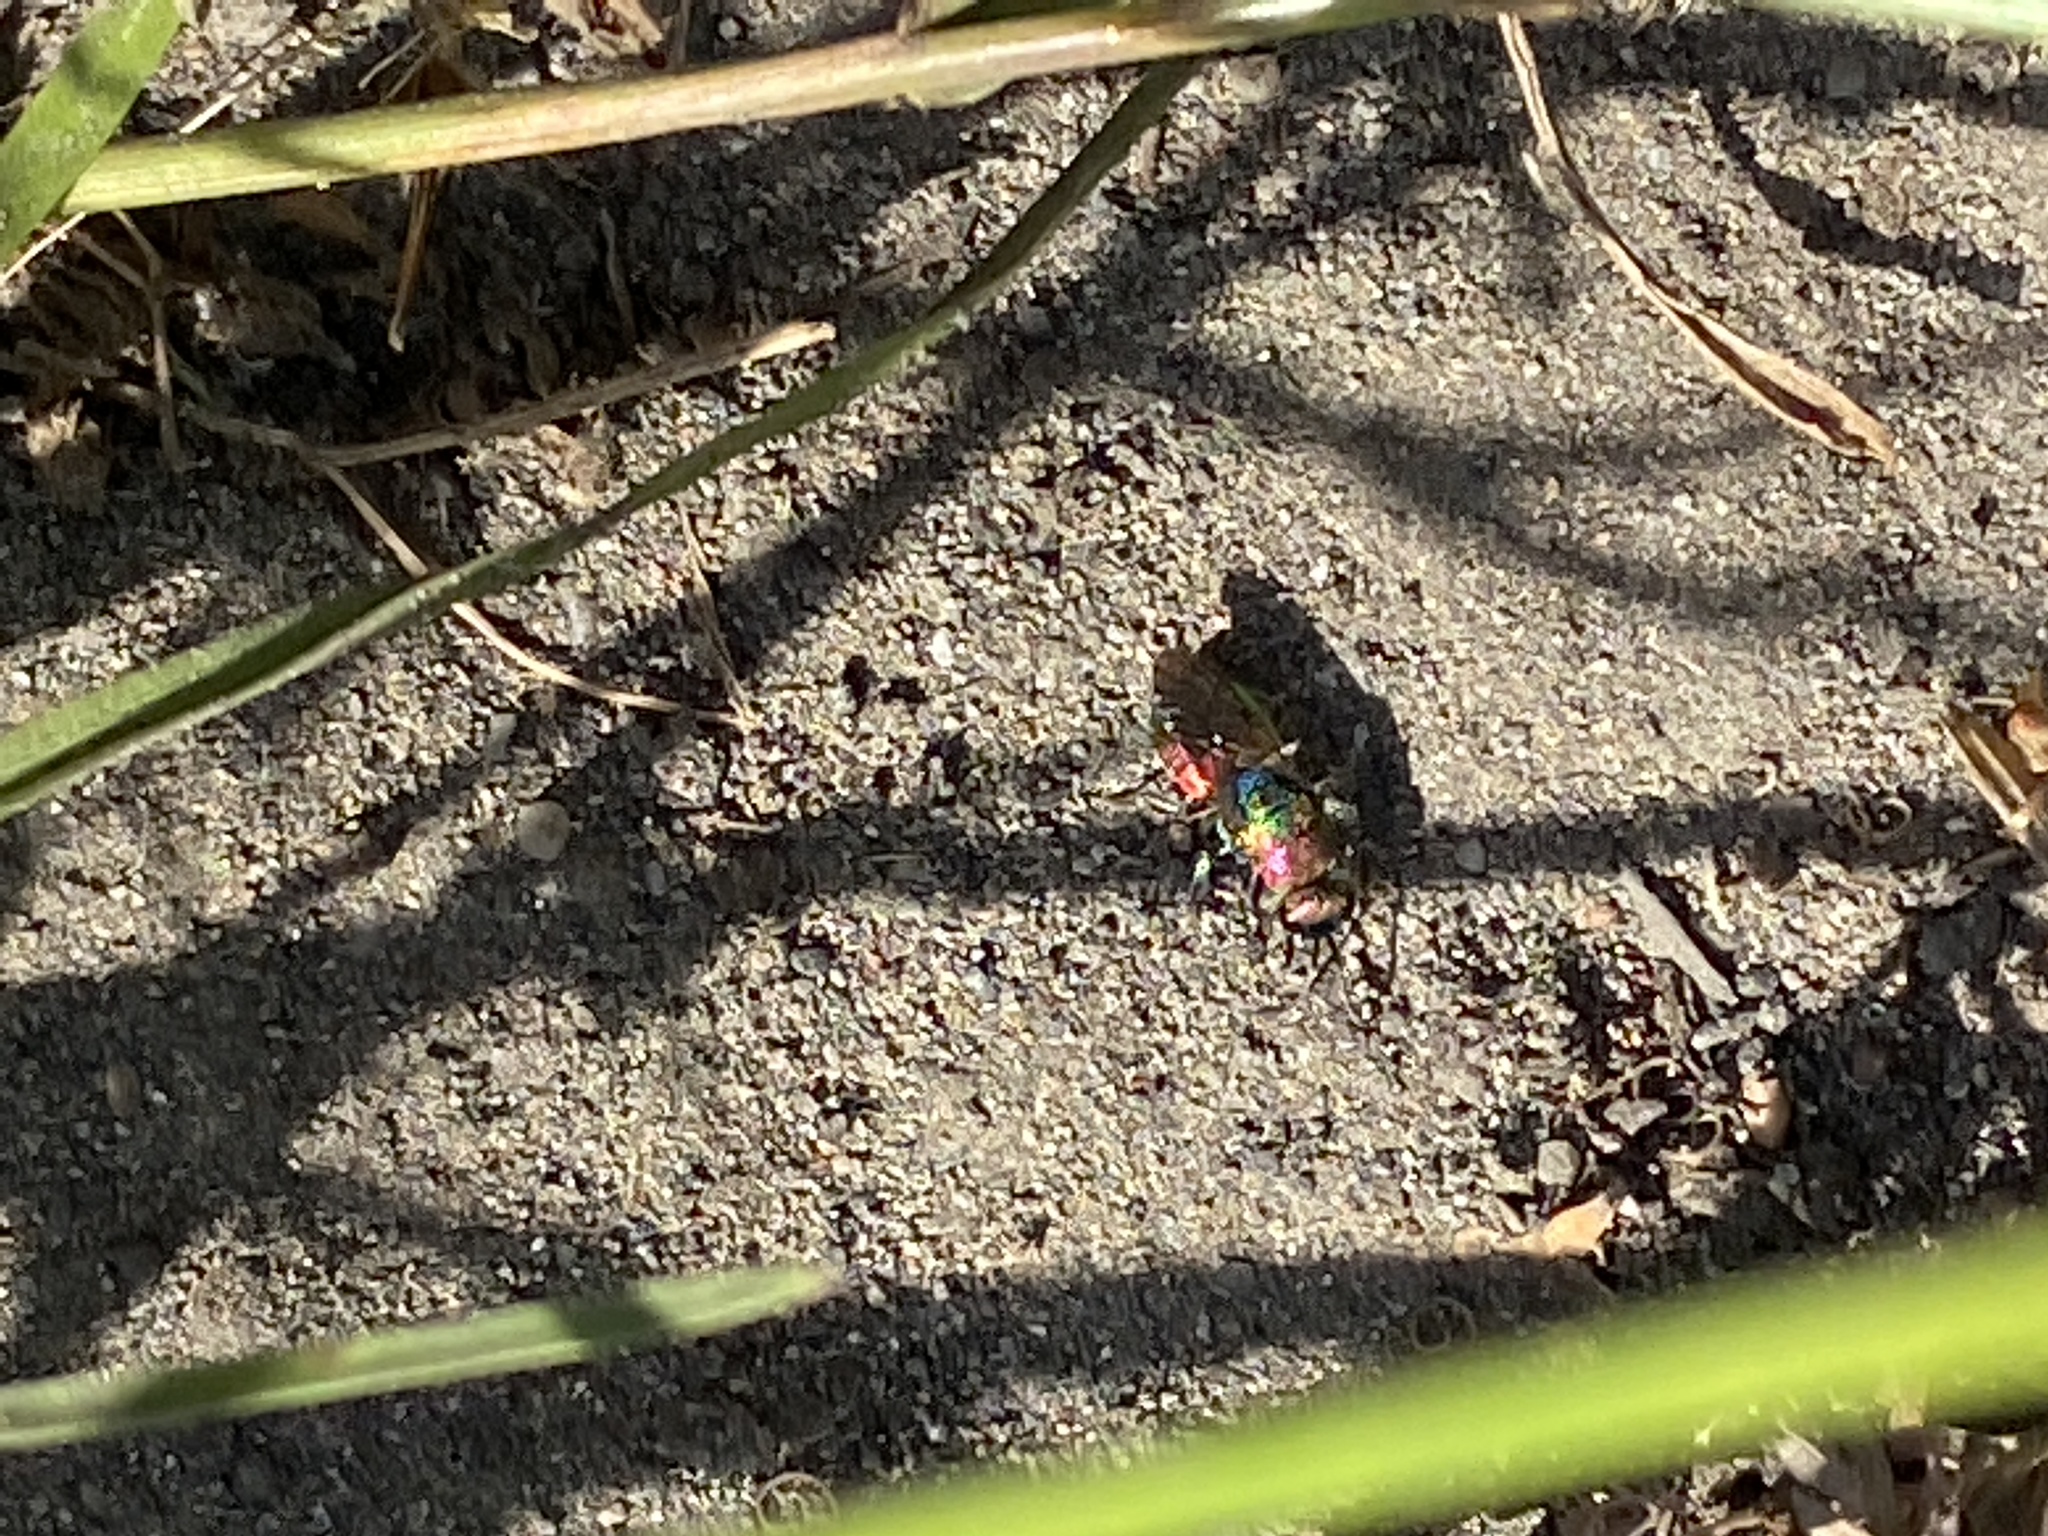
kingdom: Animalia
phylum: Arthropoda
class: Insecta
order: Hymenoptera
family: Chrysididae
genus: Hedychrum
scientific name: Hedychrum rutilans
